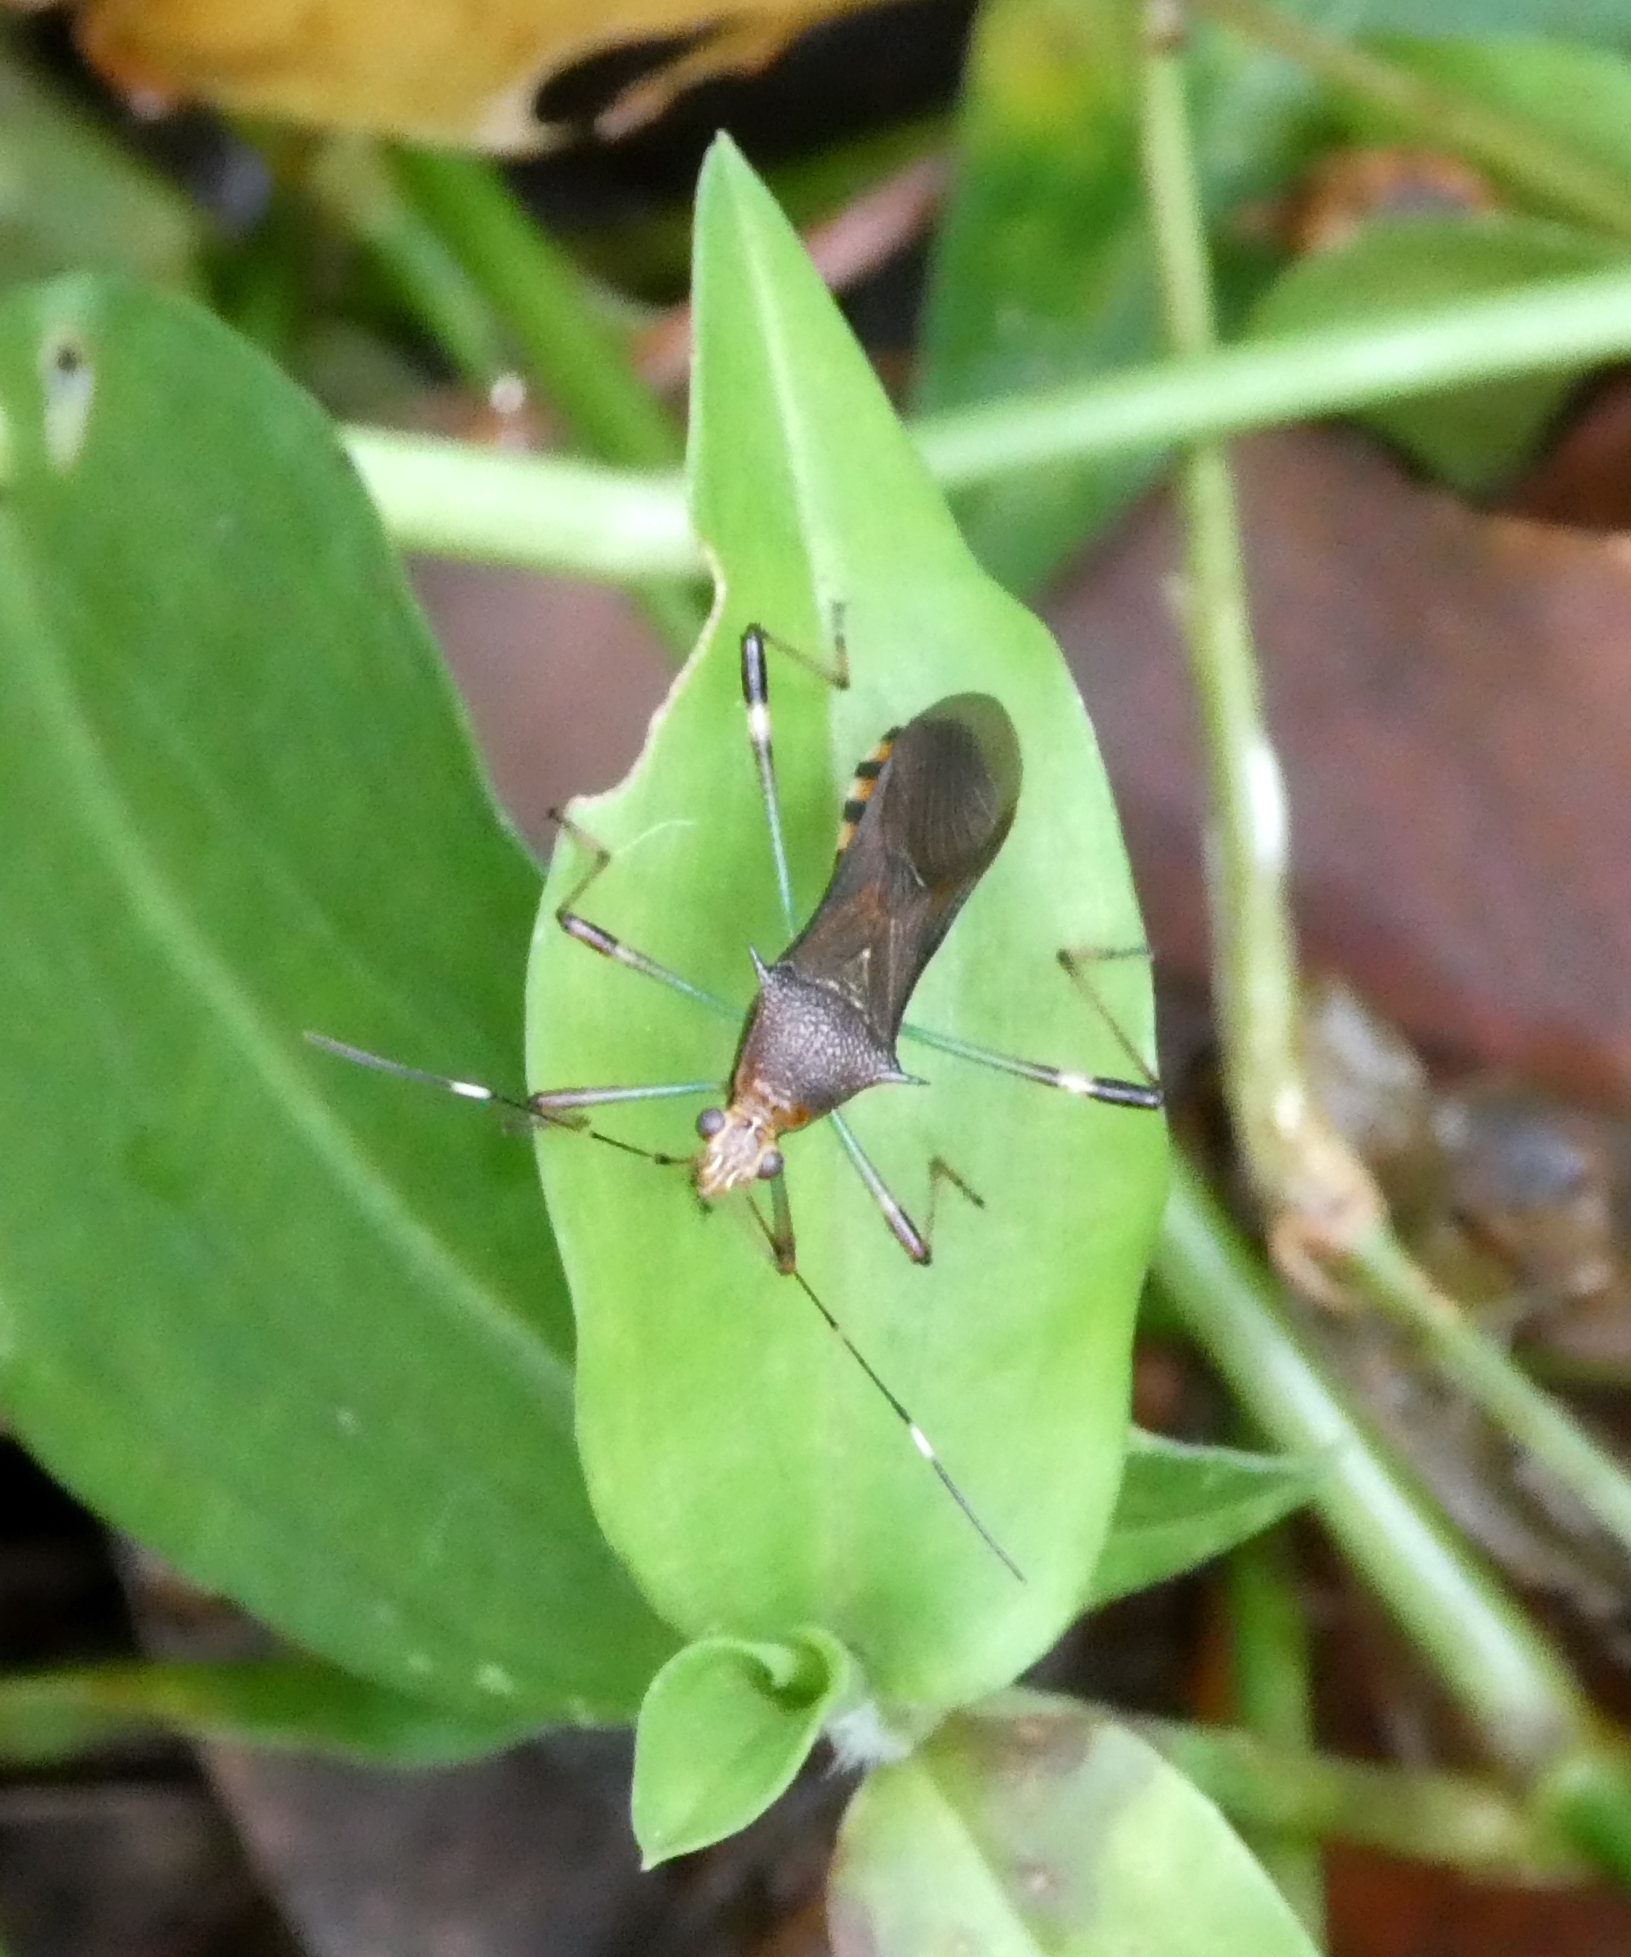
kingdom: Animalia
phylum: Arthropoda
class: Insecta
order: Hemiptera
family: Alydidae
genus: Noliphus
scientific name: Noliphus erythrocephalus
